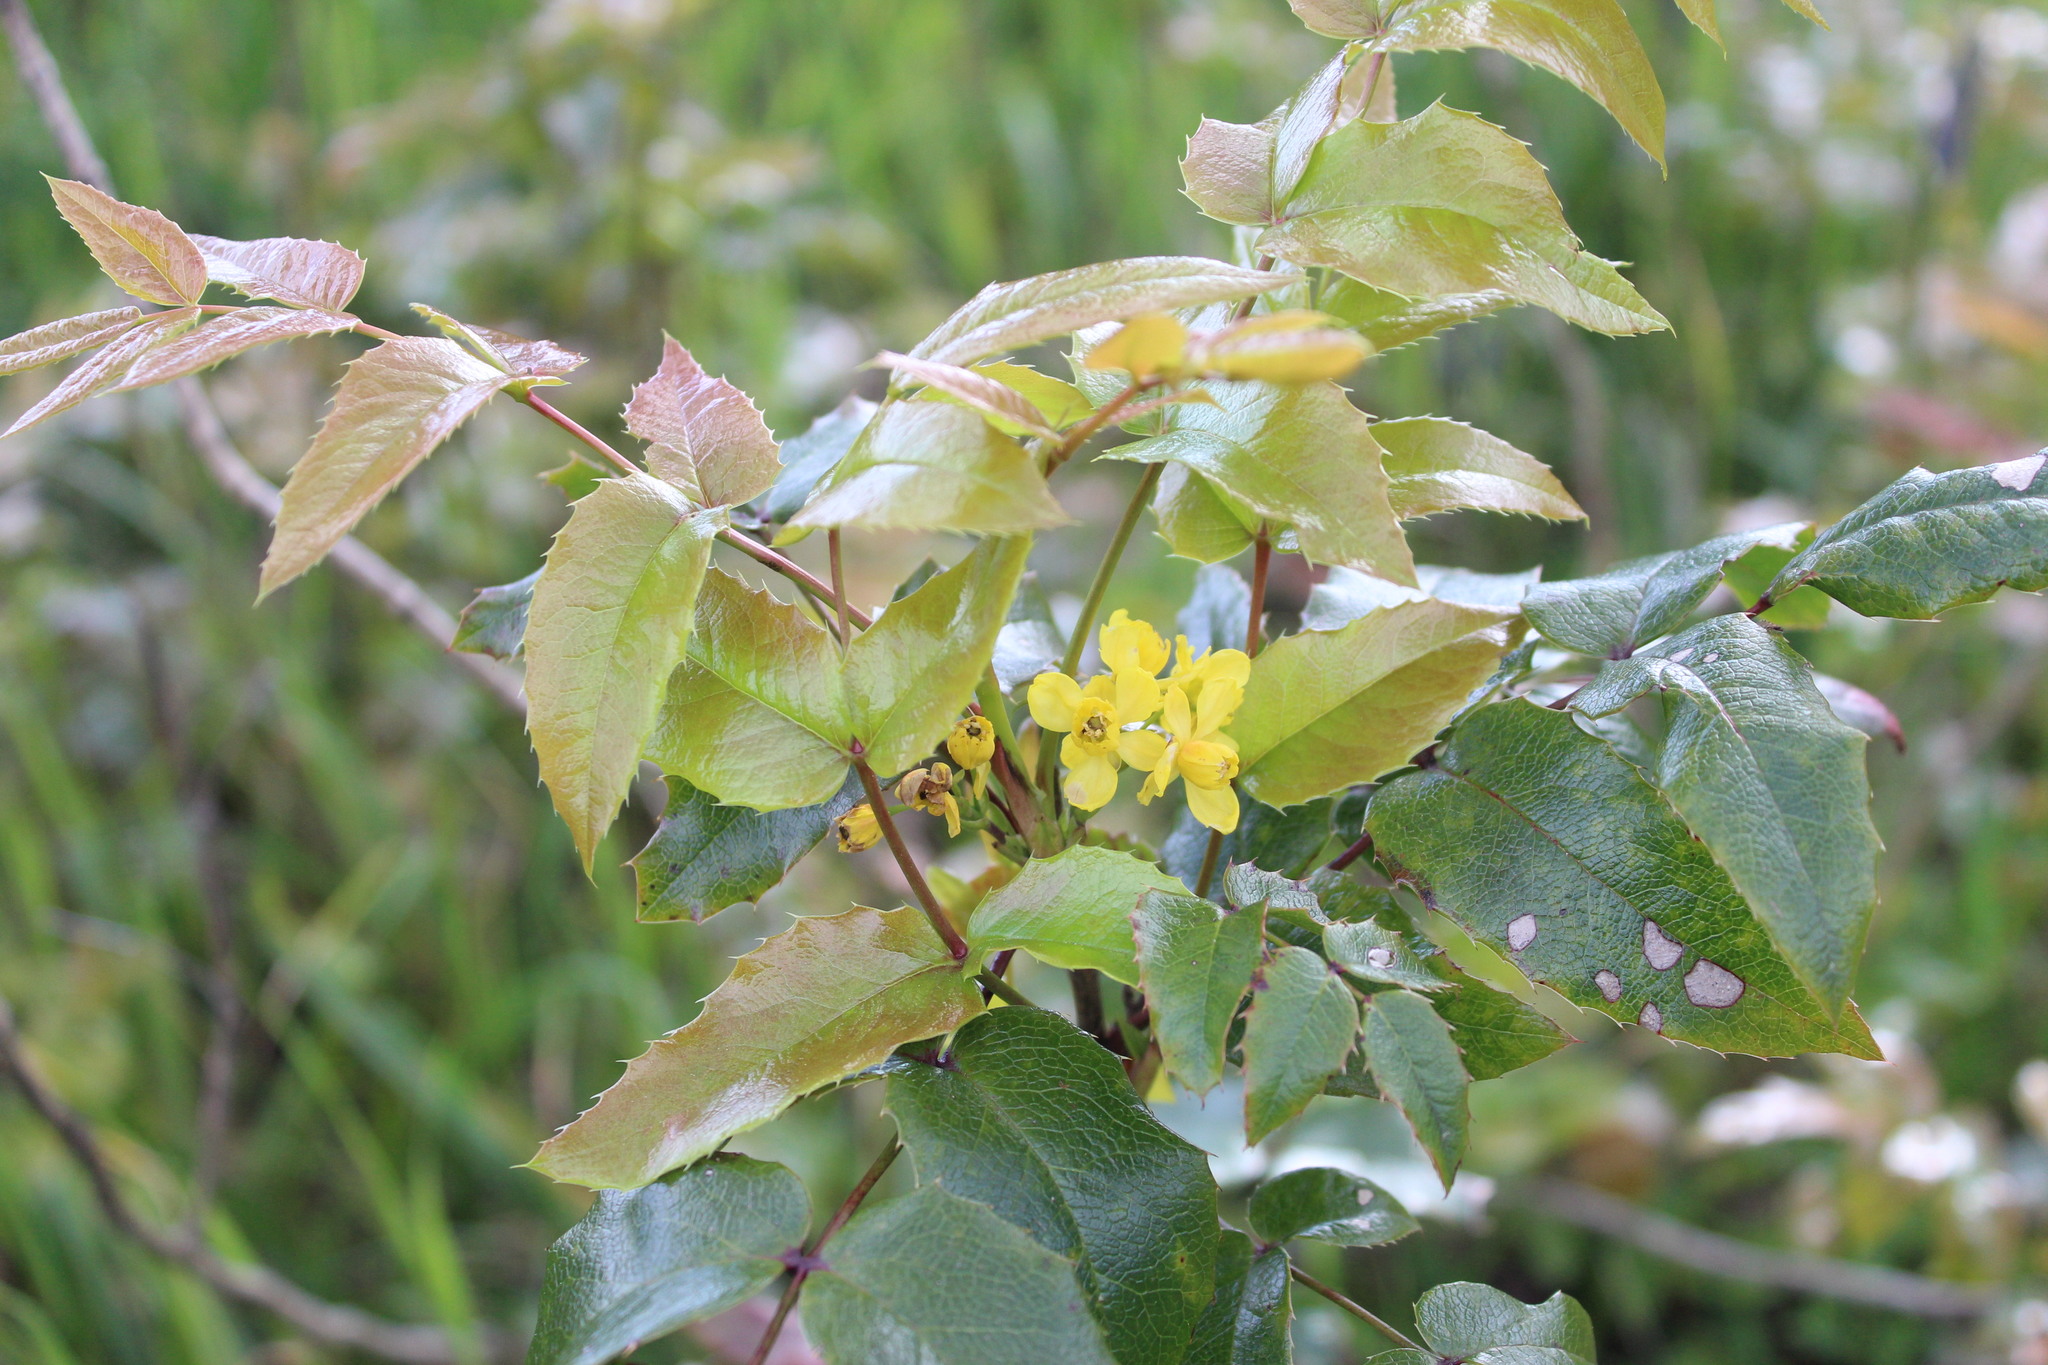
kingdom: Plantae
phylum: Tracheophyta
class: Magnoliopsida
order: Ranunculales
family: Berberidaceae
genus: Mahonia
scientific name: Mahonia aquifolium
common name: Oregon-grape
